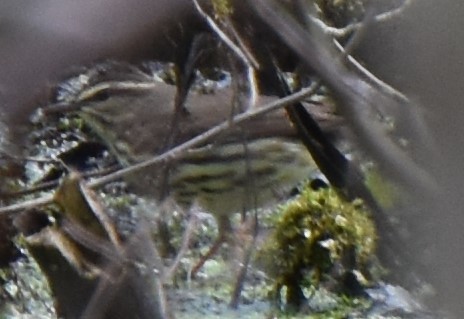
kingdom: Animalia
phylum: Chordata
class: Aves
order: Passeriformes
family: Parulidae
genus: Parkesia
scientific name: Parkesia noveboracensis
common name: Northern waterthrush
